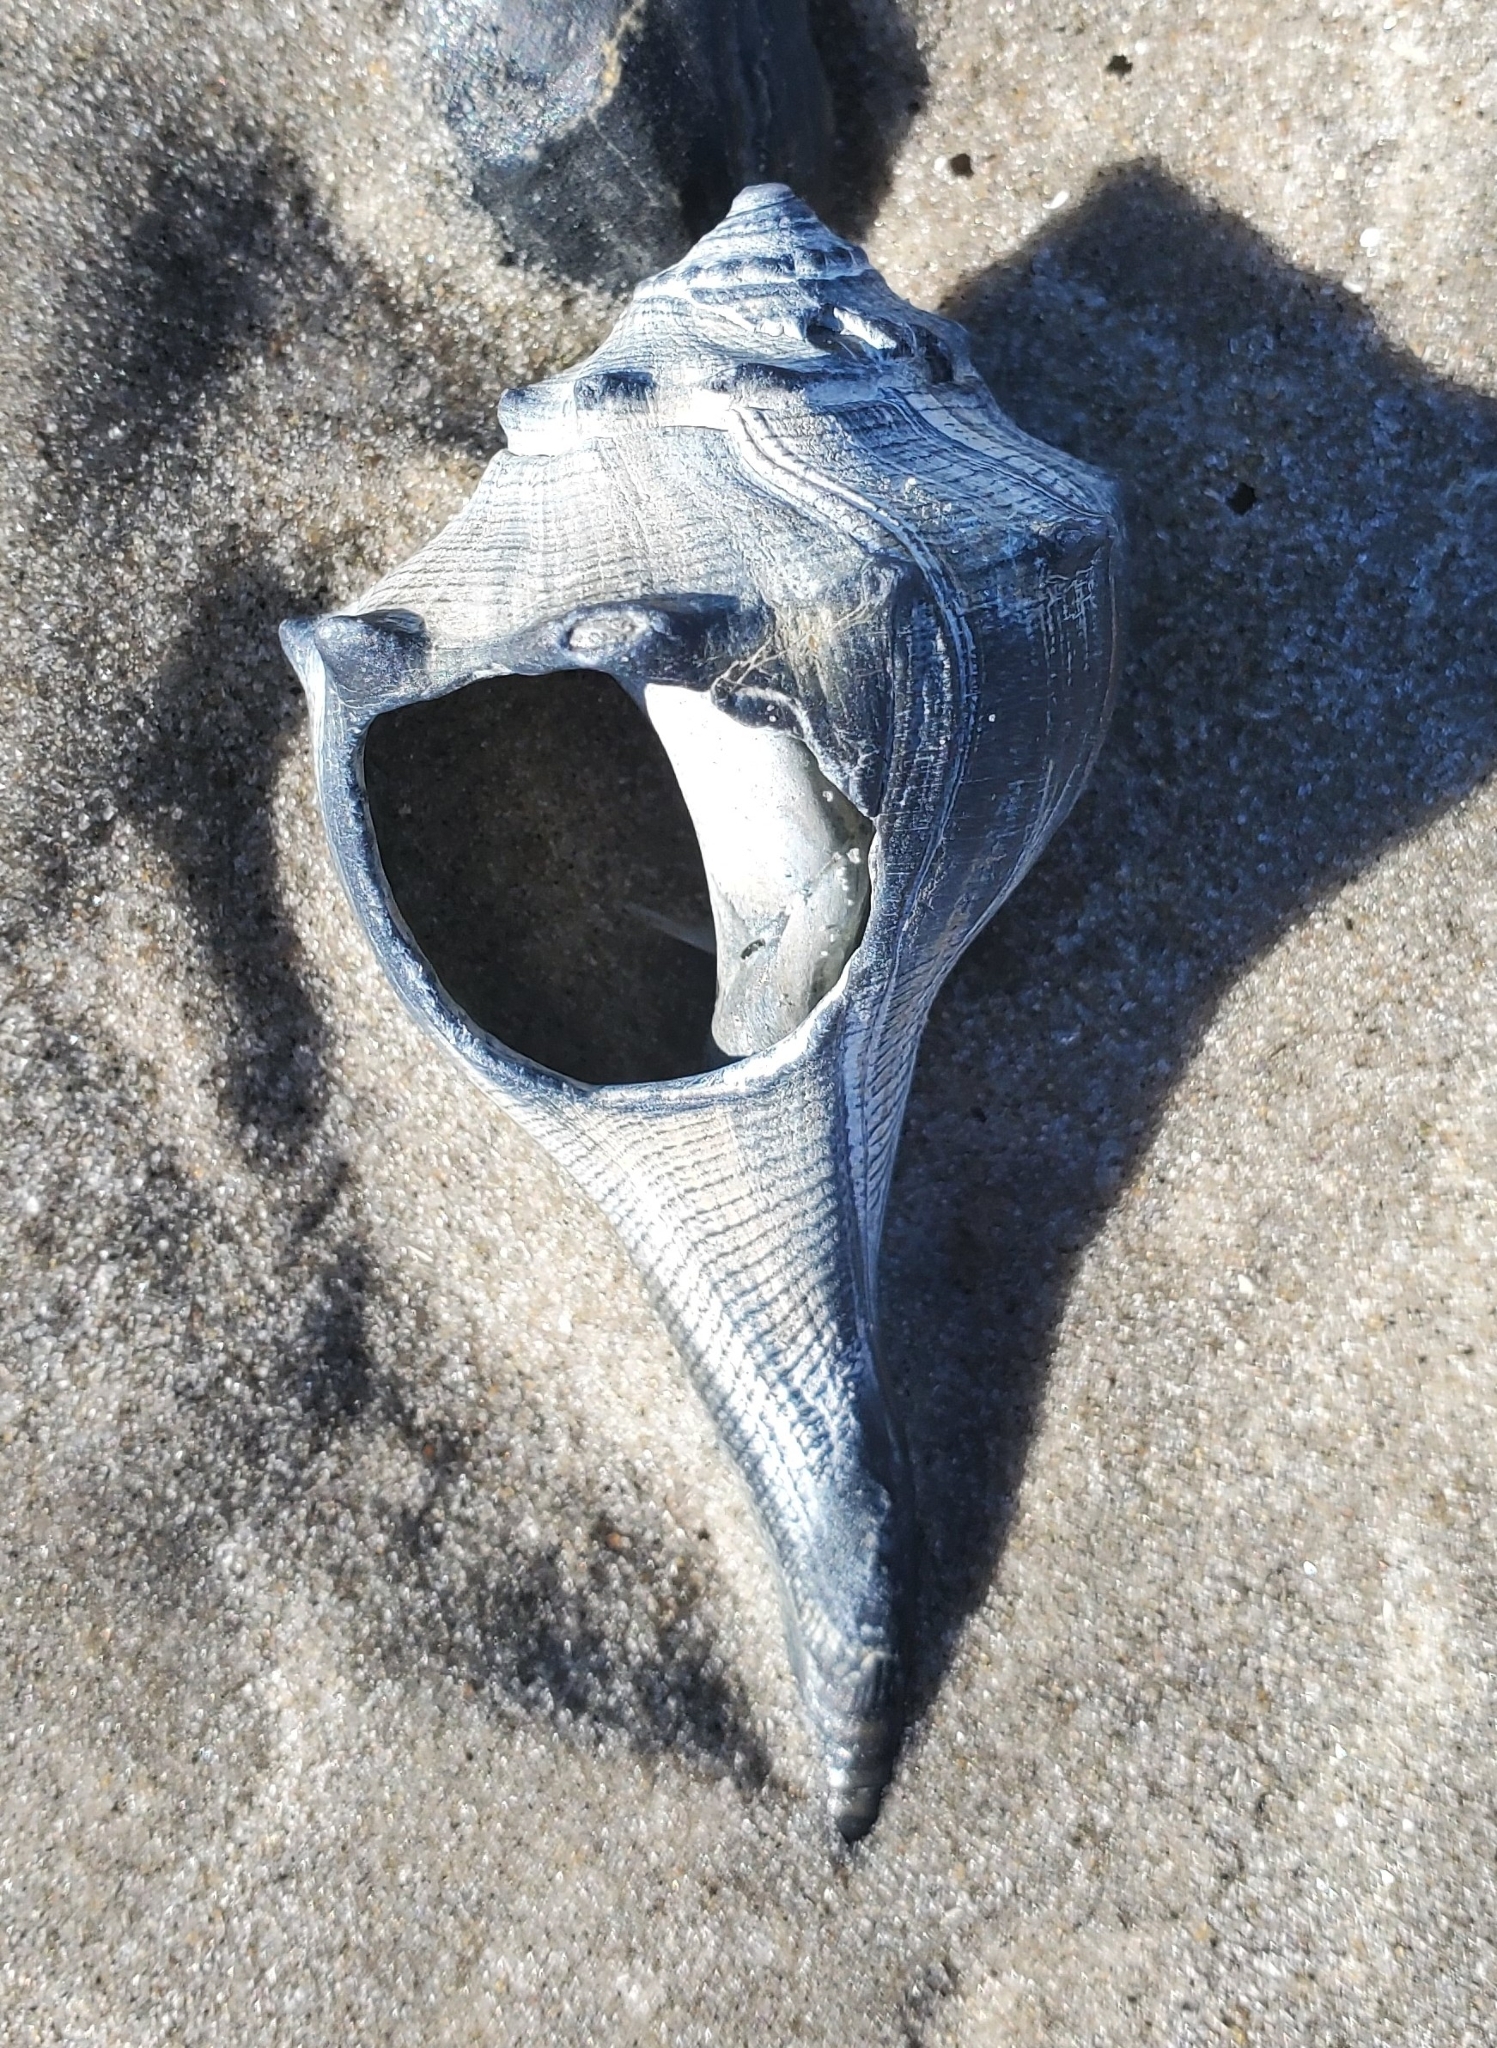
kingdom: Animalia
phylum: Mollusca
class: Gastropoda
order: Neogastropoda
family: Busyconidae
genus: Busycon
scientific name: Busycon carica
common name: Knobbed whelk
